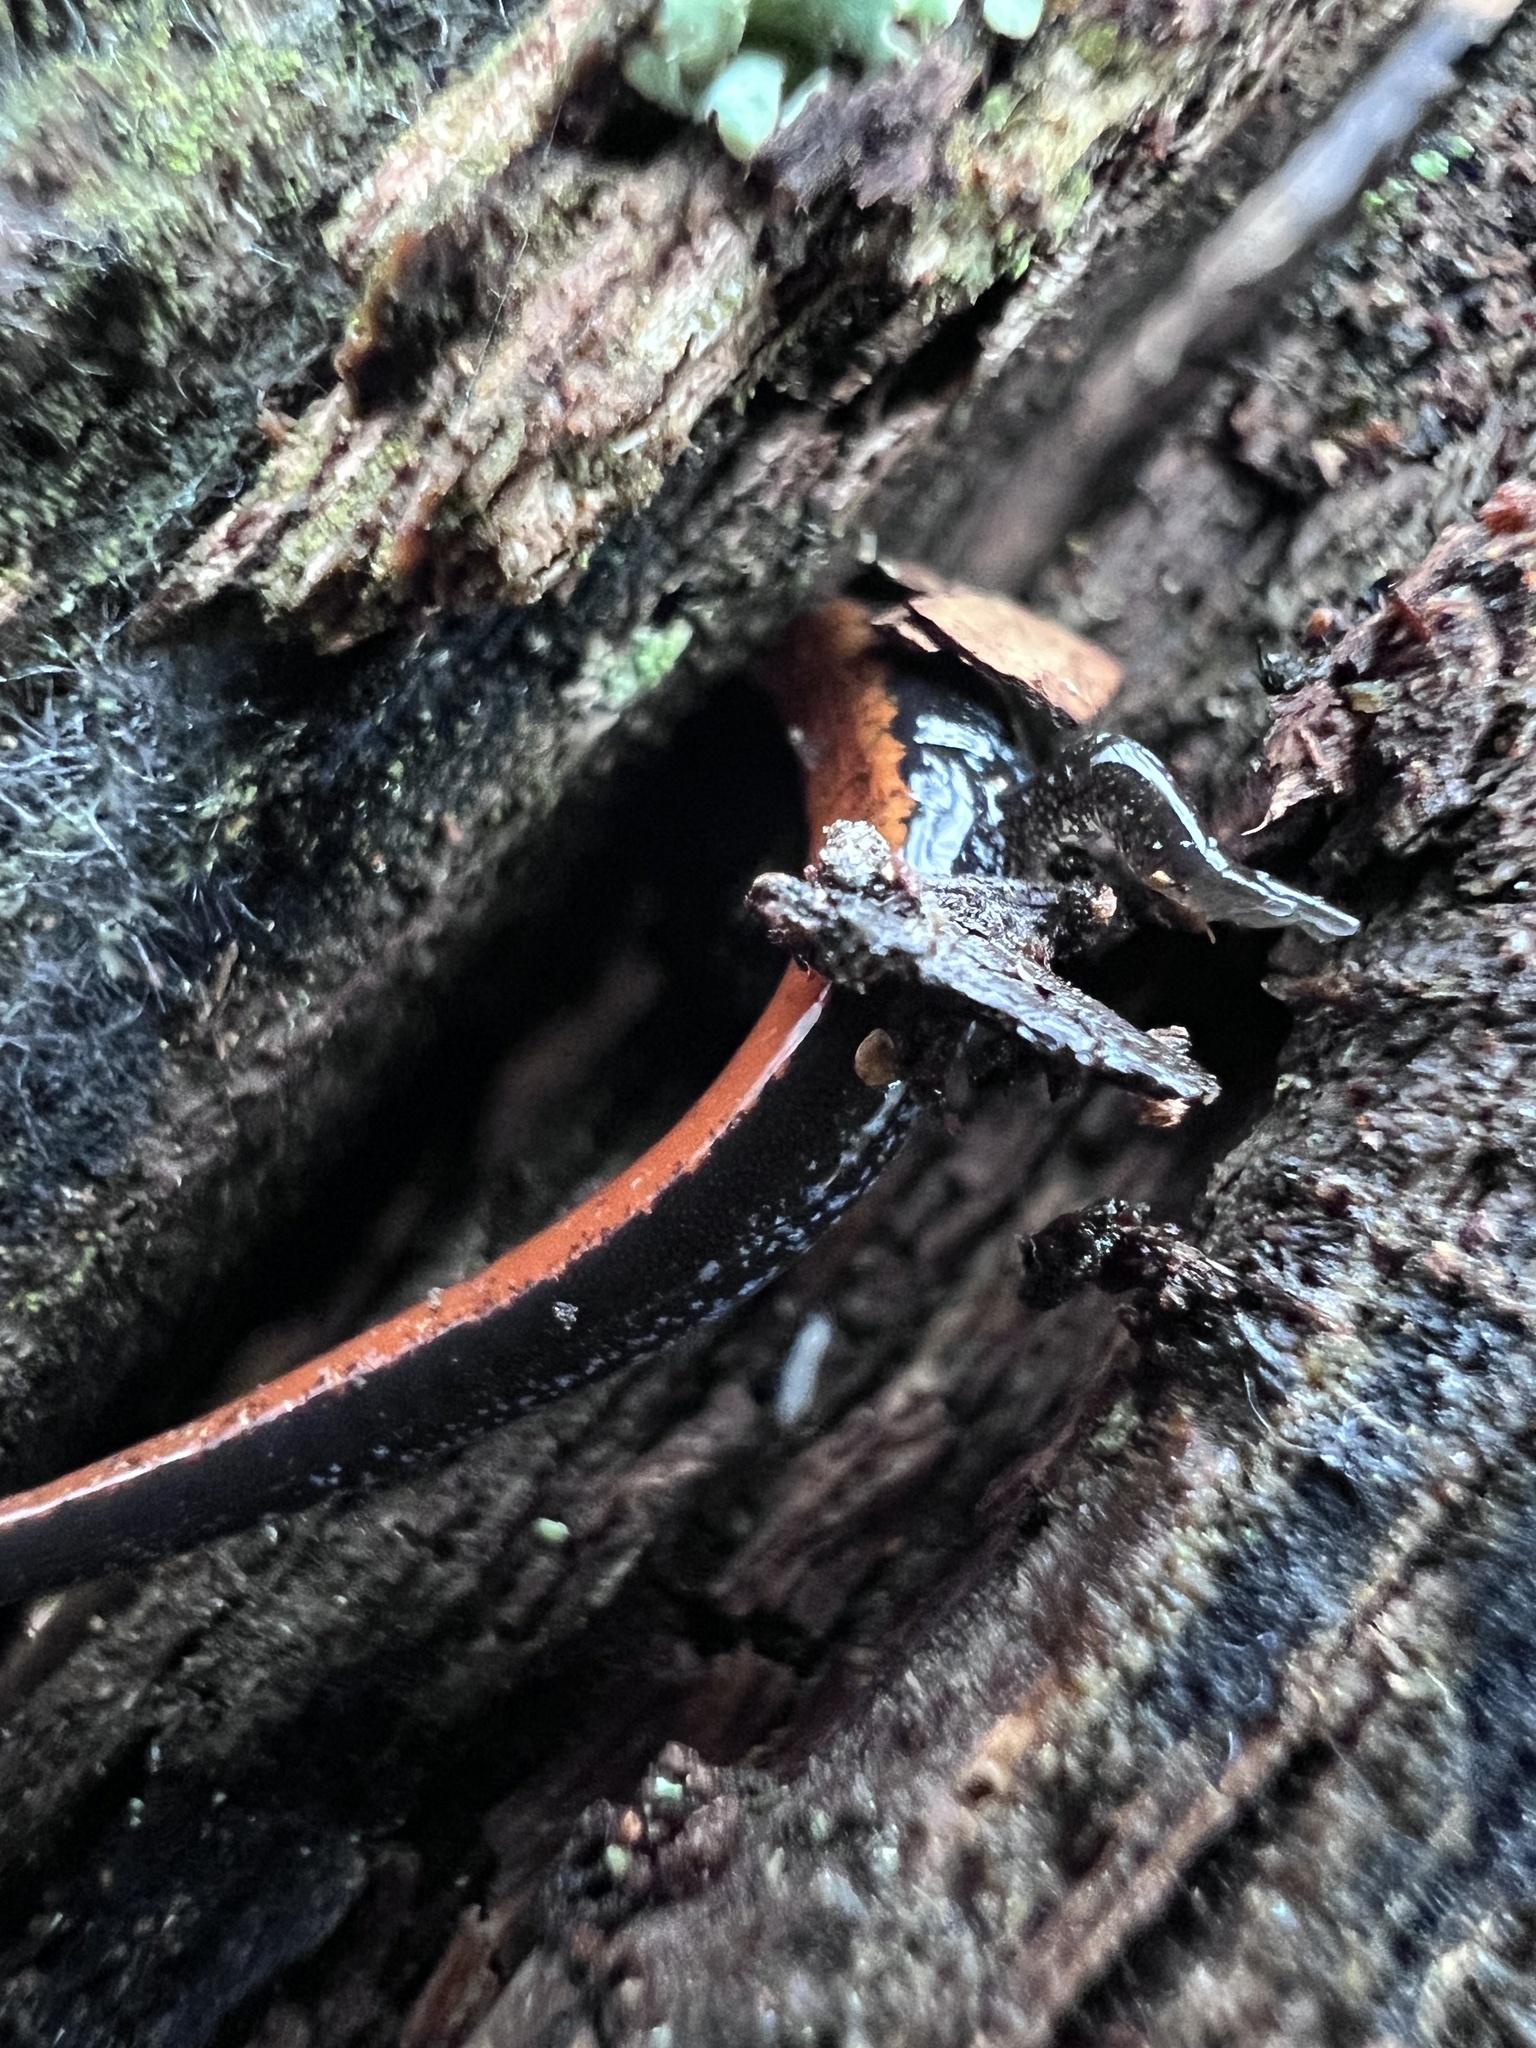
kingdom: Animalia
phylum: Chordata
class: Amphibia
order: Caudata
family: Plethodontidae
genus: Plethodon
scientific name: Plethodon cinereus
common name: Redback salamander
